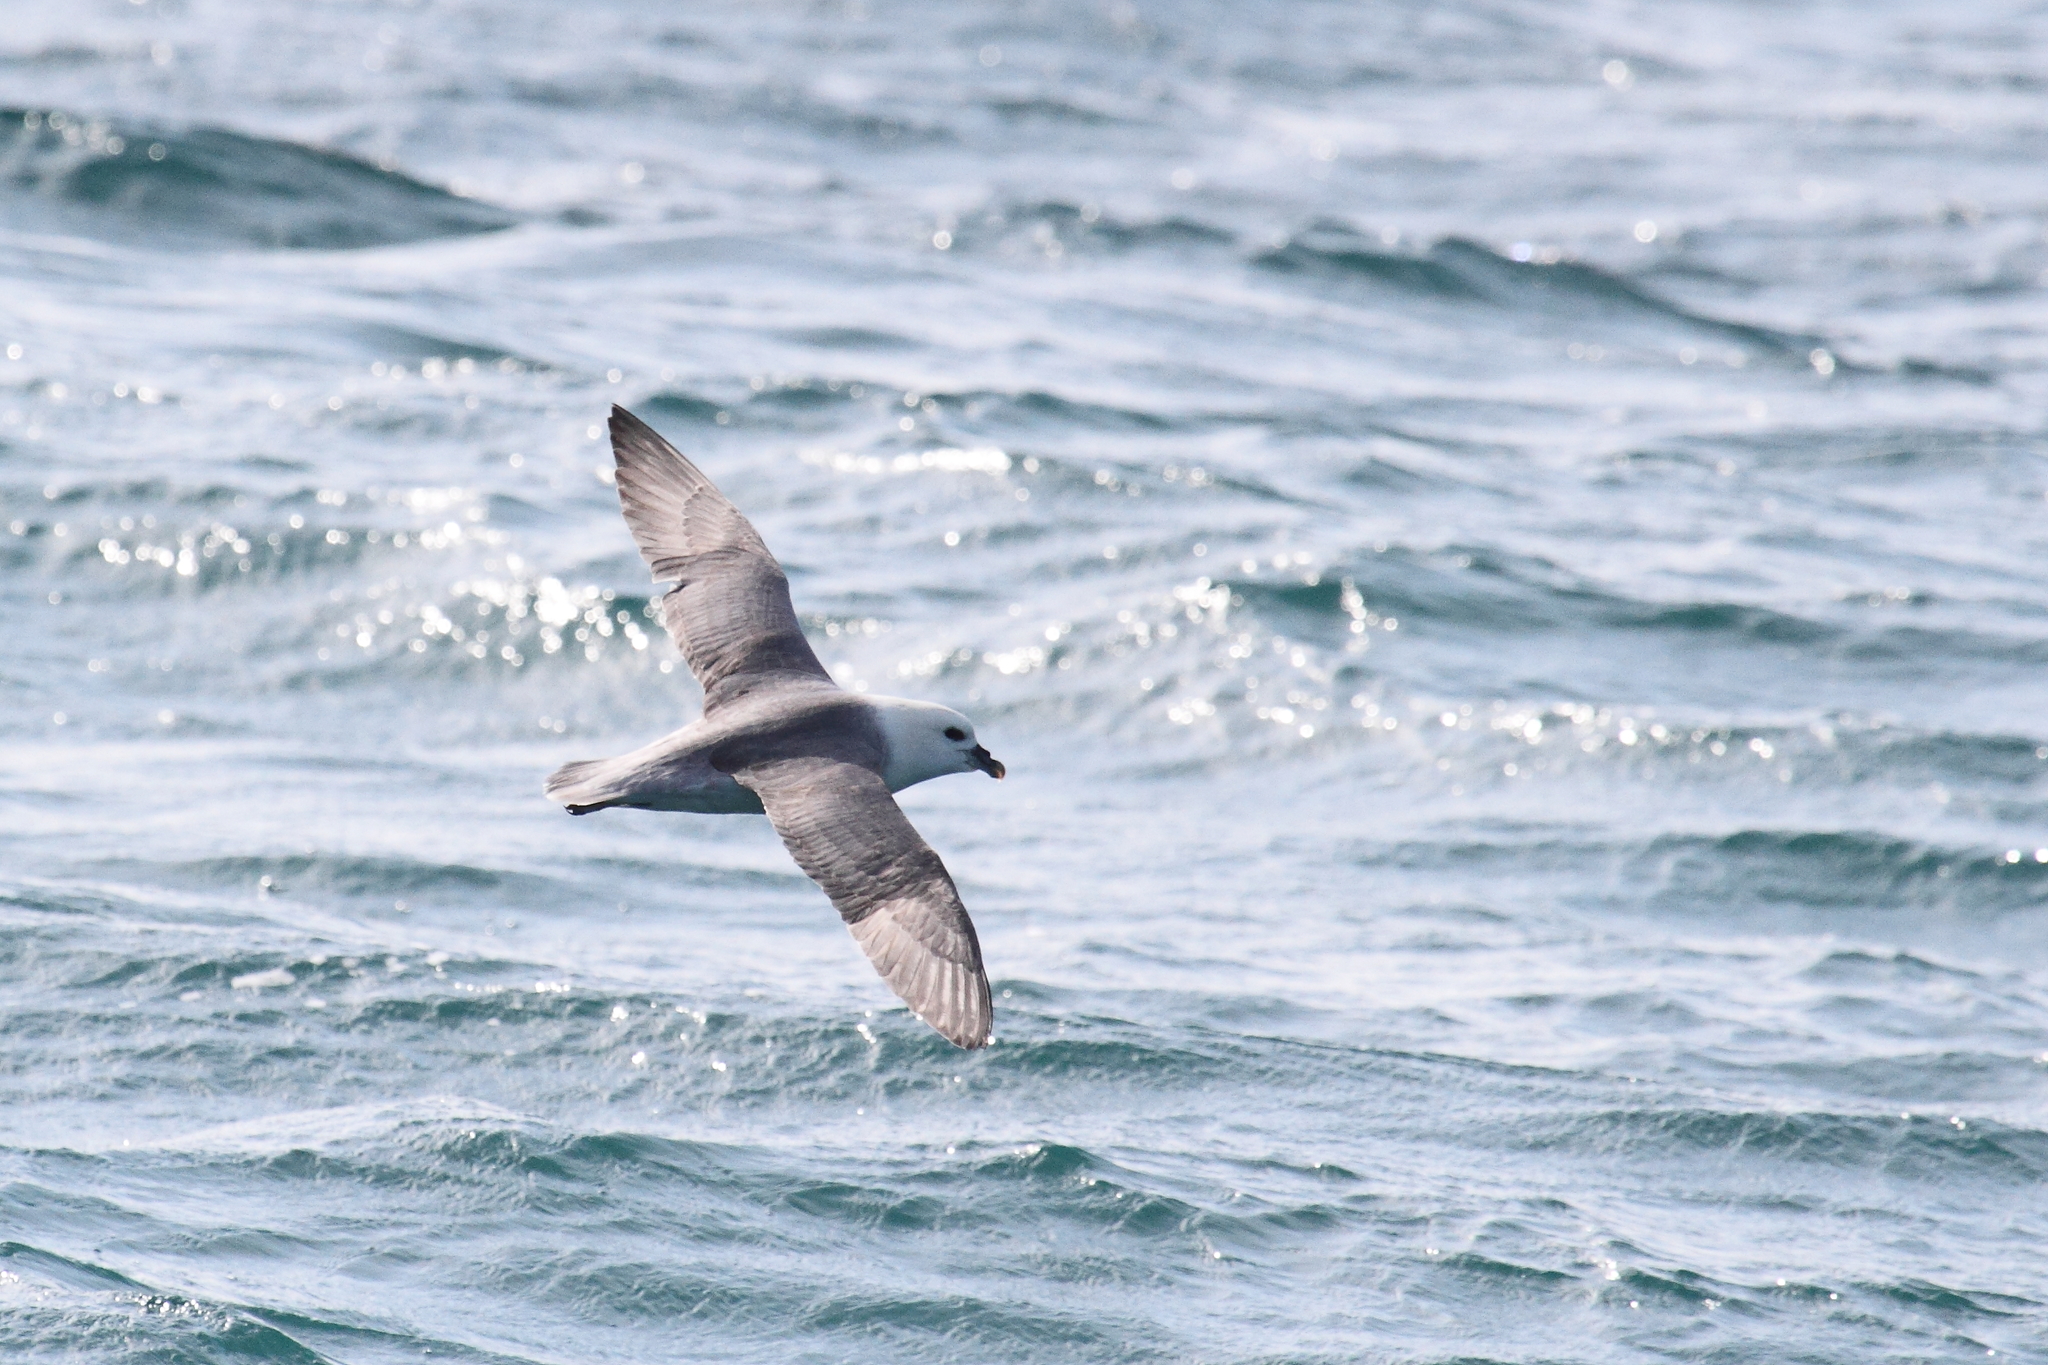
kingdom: Animalia
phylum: Chordata
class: Aves
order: Procellariiformes
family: Procellariidae
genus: Fulmarus
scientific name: Fulmarus glacialis
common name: Northern fulmar
